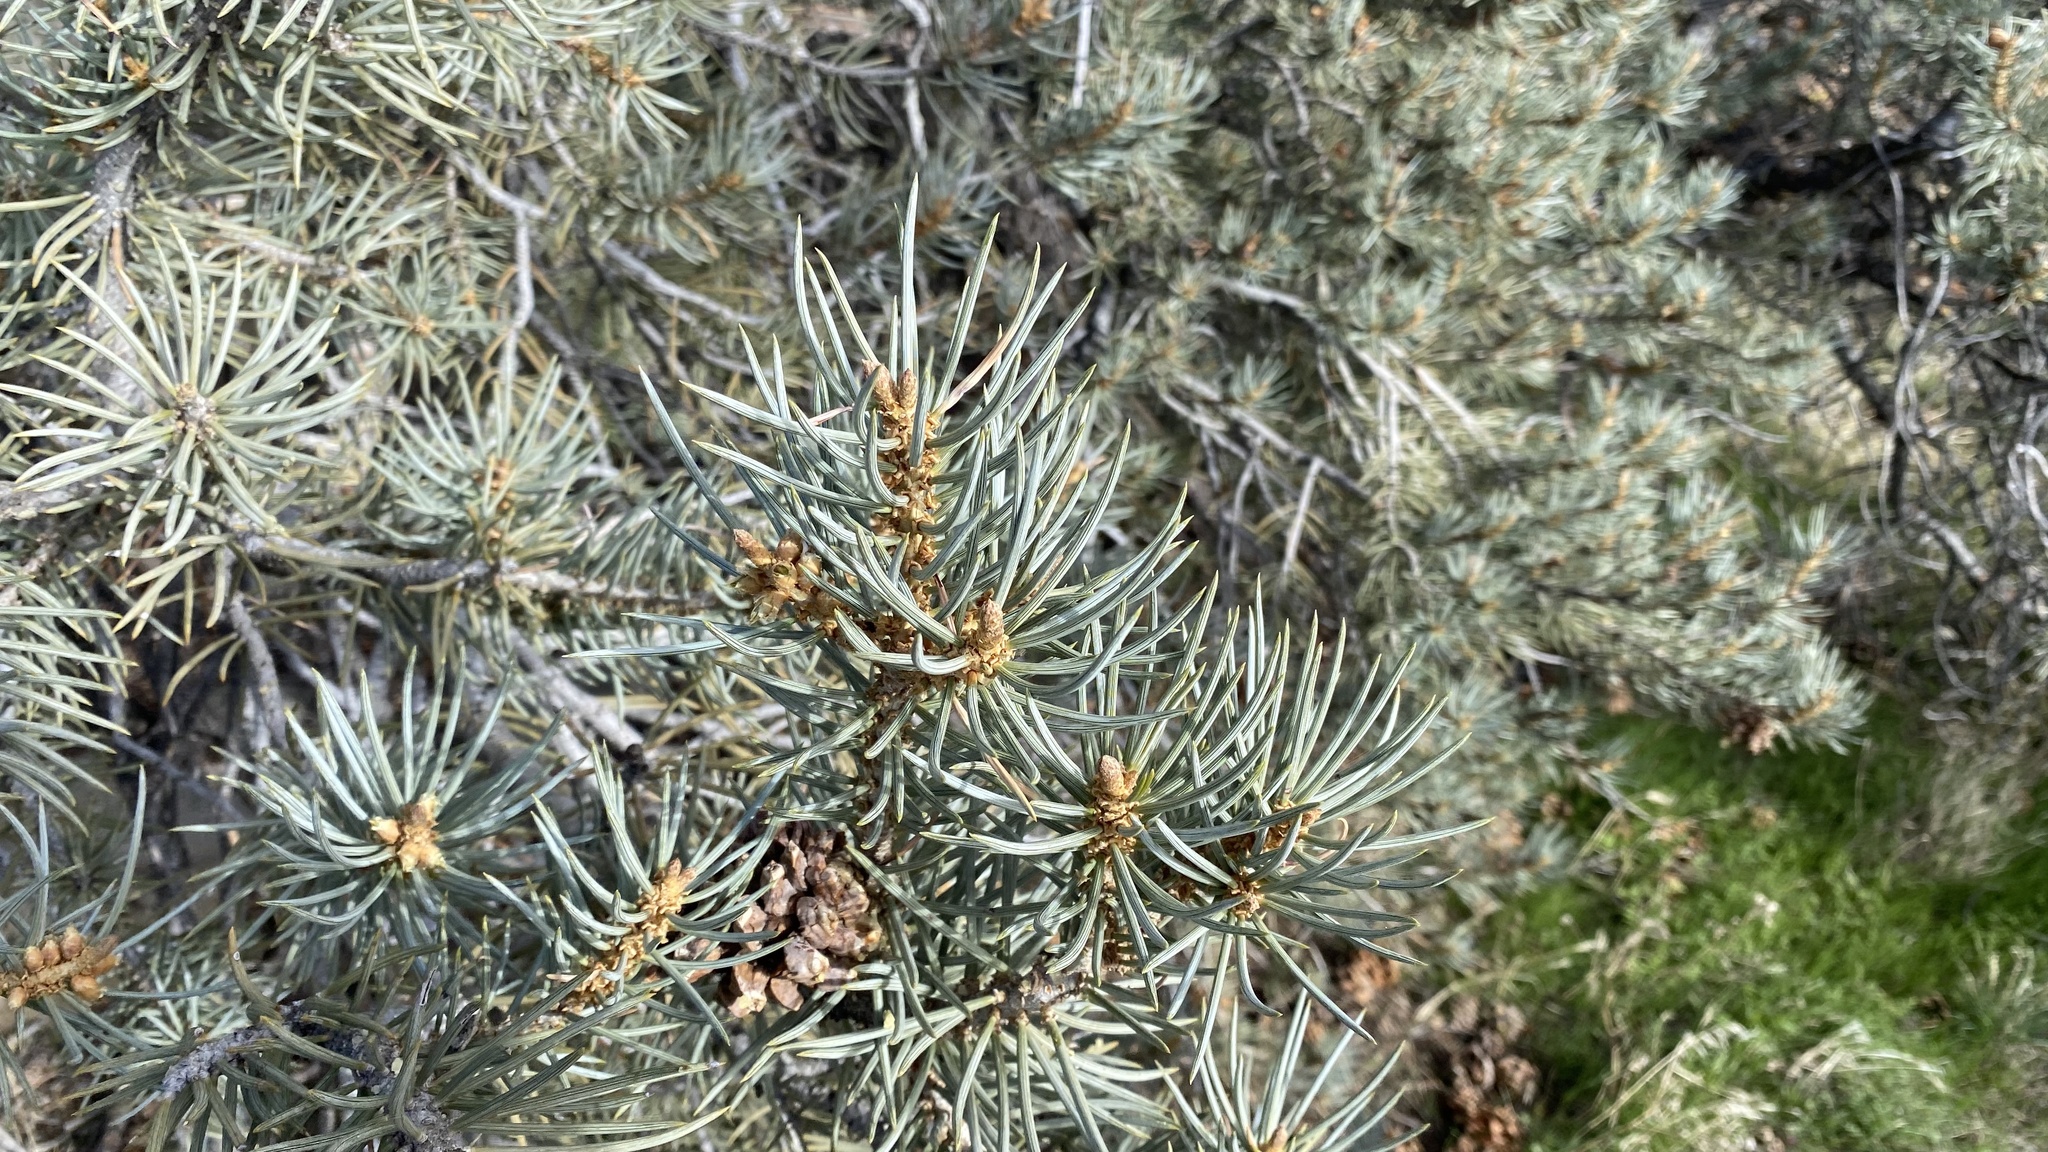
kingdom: Plantae
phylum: Tracheophyta
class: Pinopsida
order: Pinales
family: Pinaceae
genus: Pinus
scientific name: Pinus monophylla
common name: One-leaved nut pine
